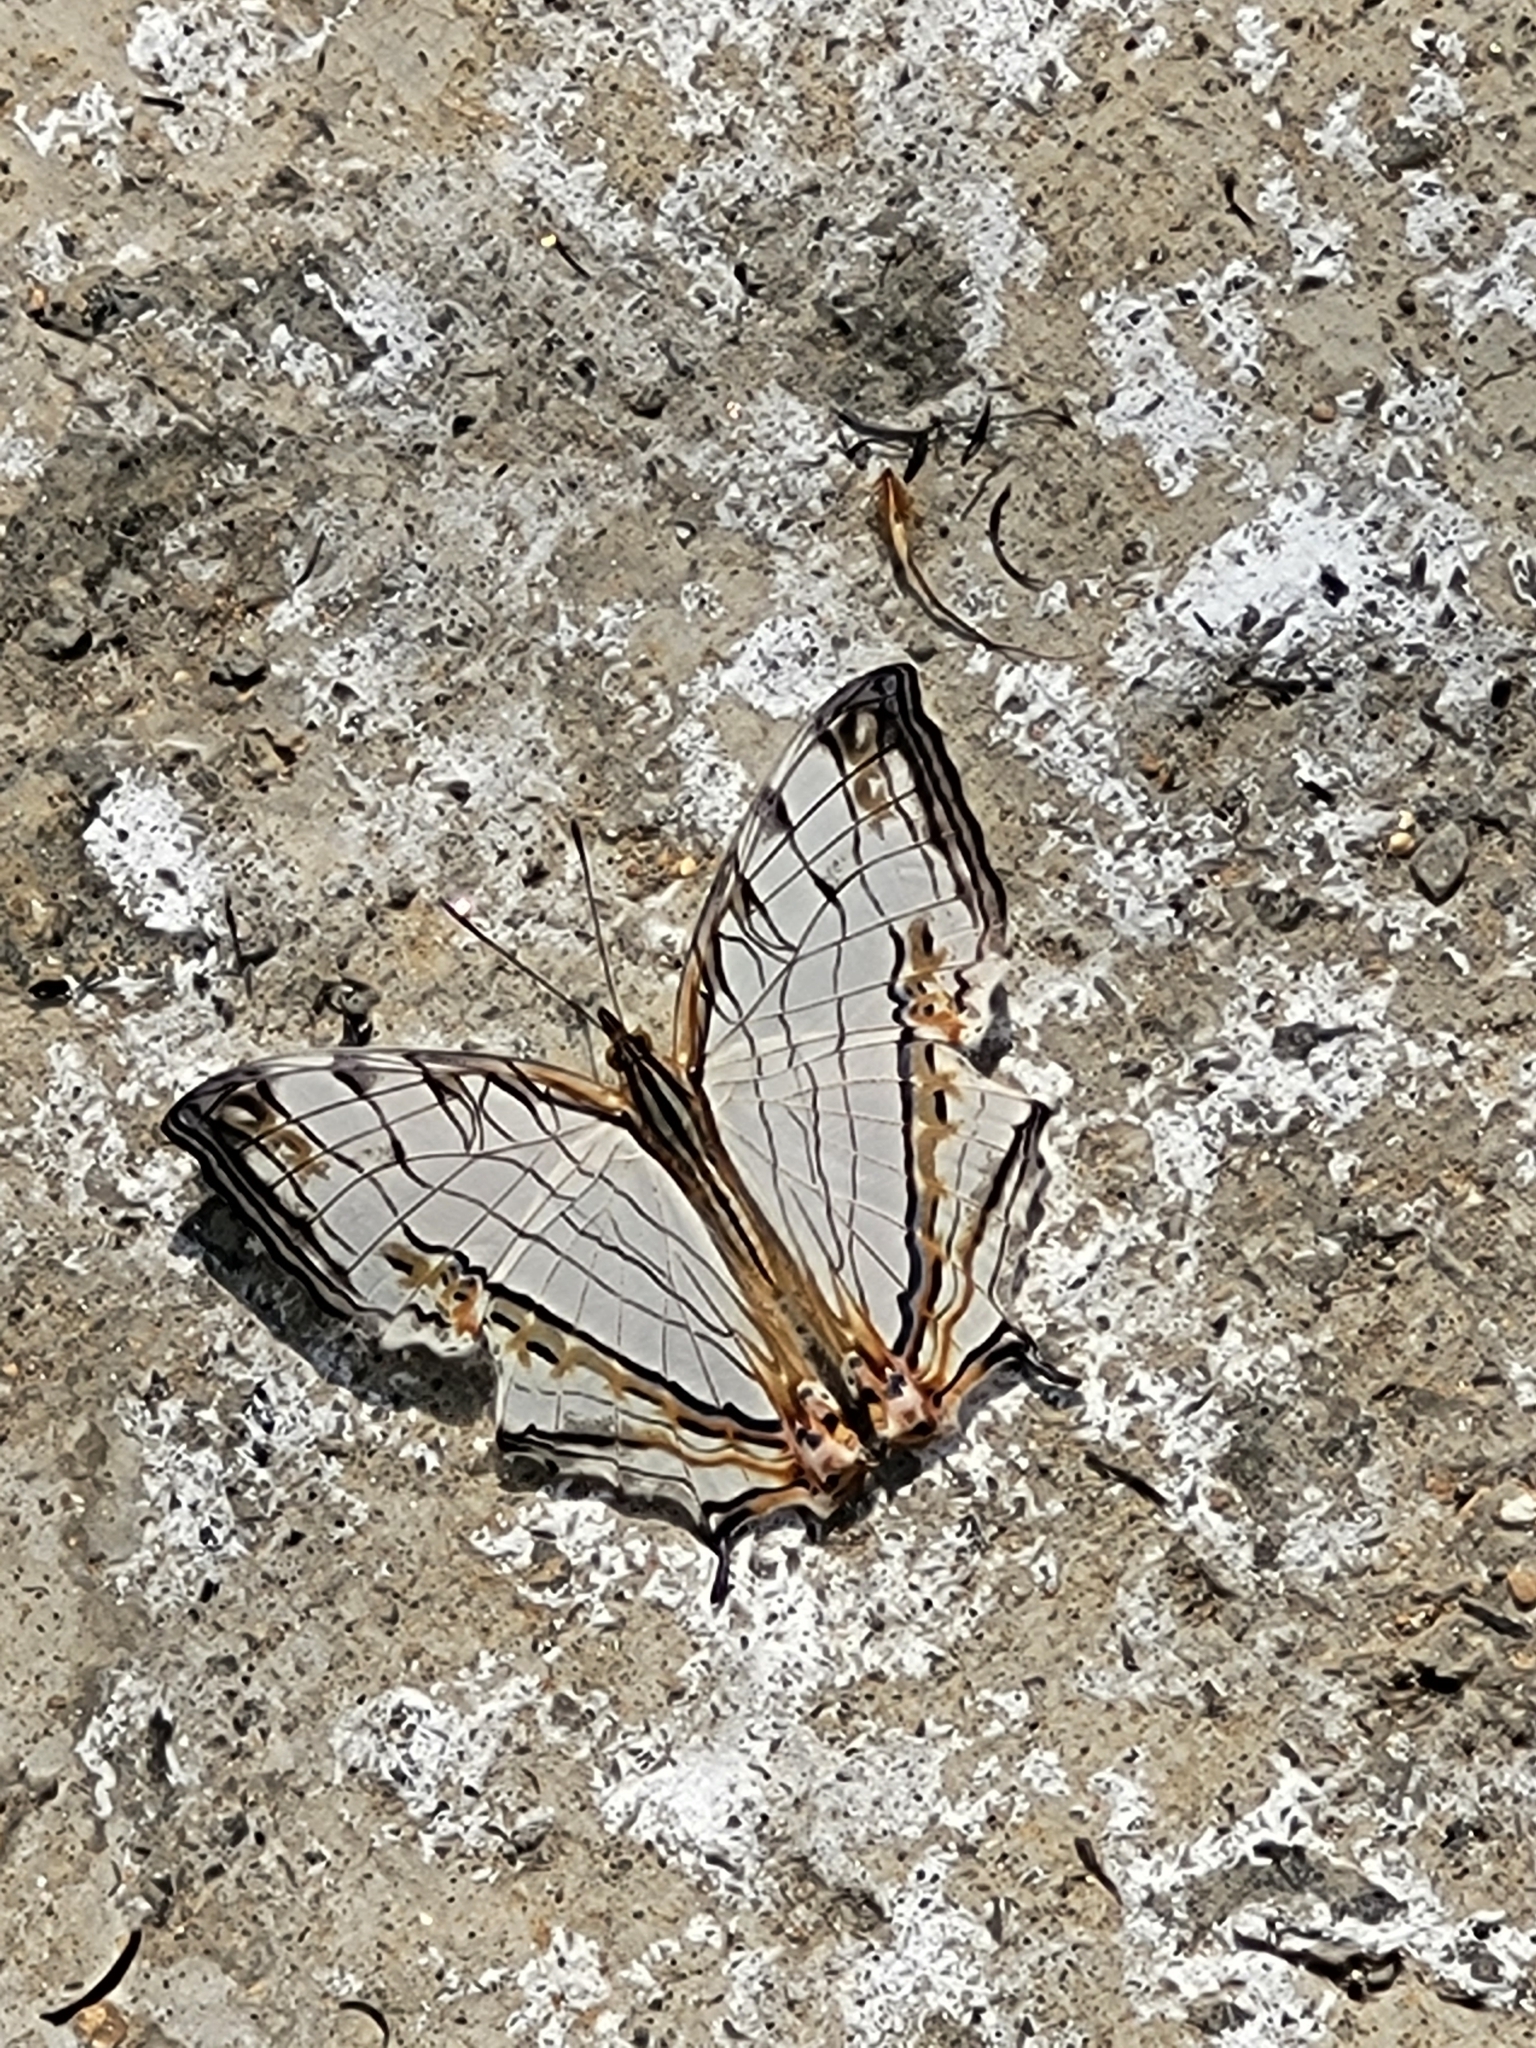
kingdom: Animalia
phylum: Arthropoda
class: Insecta
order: Lepidoptera
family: Nymphalidae
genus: Cyrestis
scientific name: Cyrestis thyodamas
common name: Common mapwing
